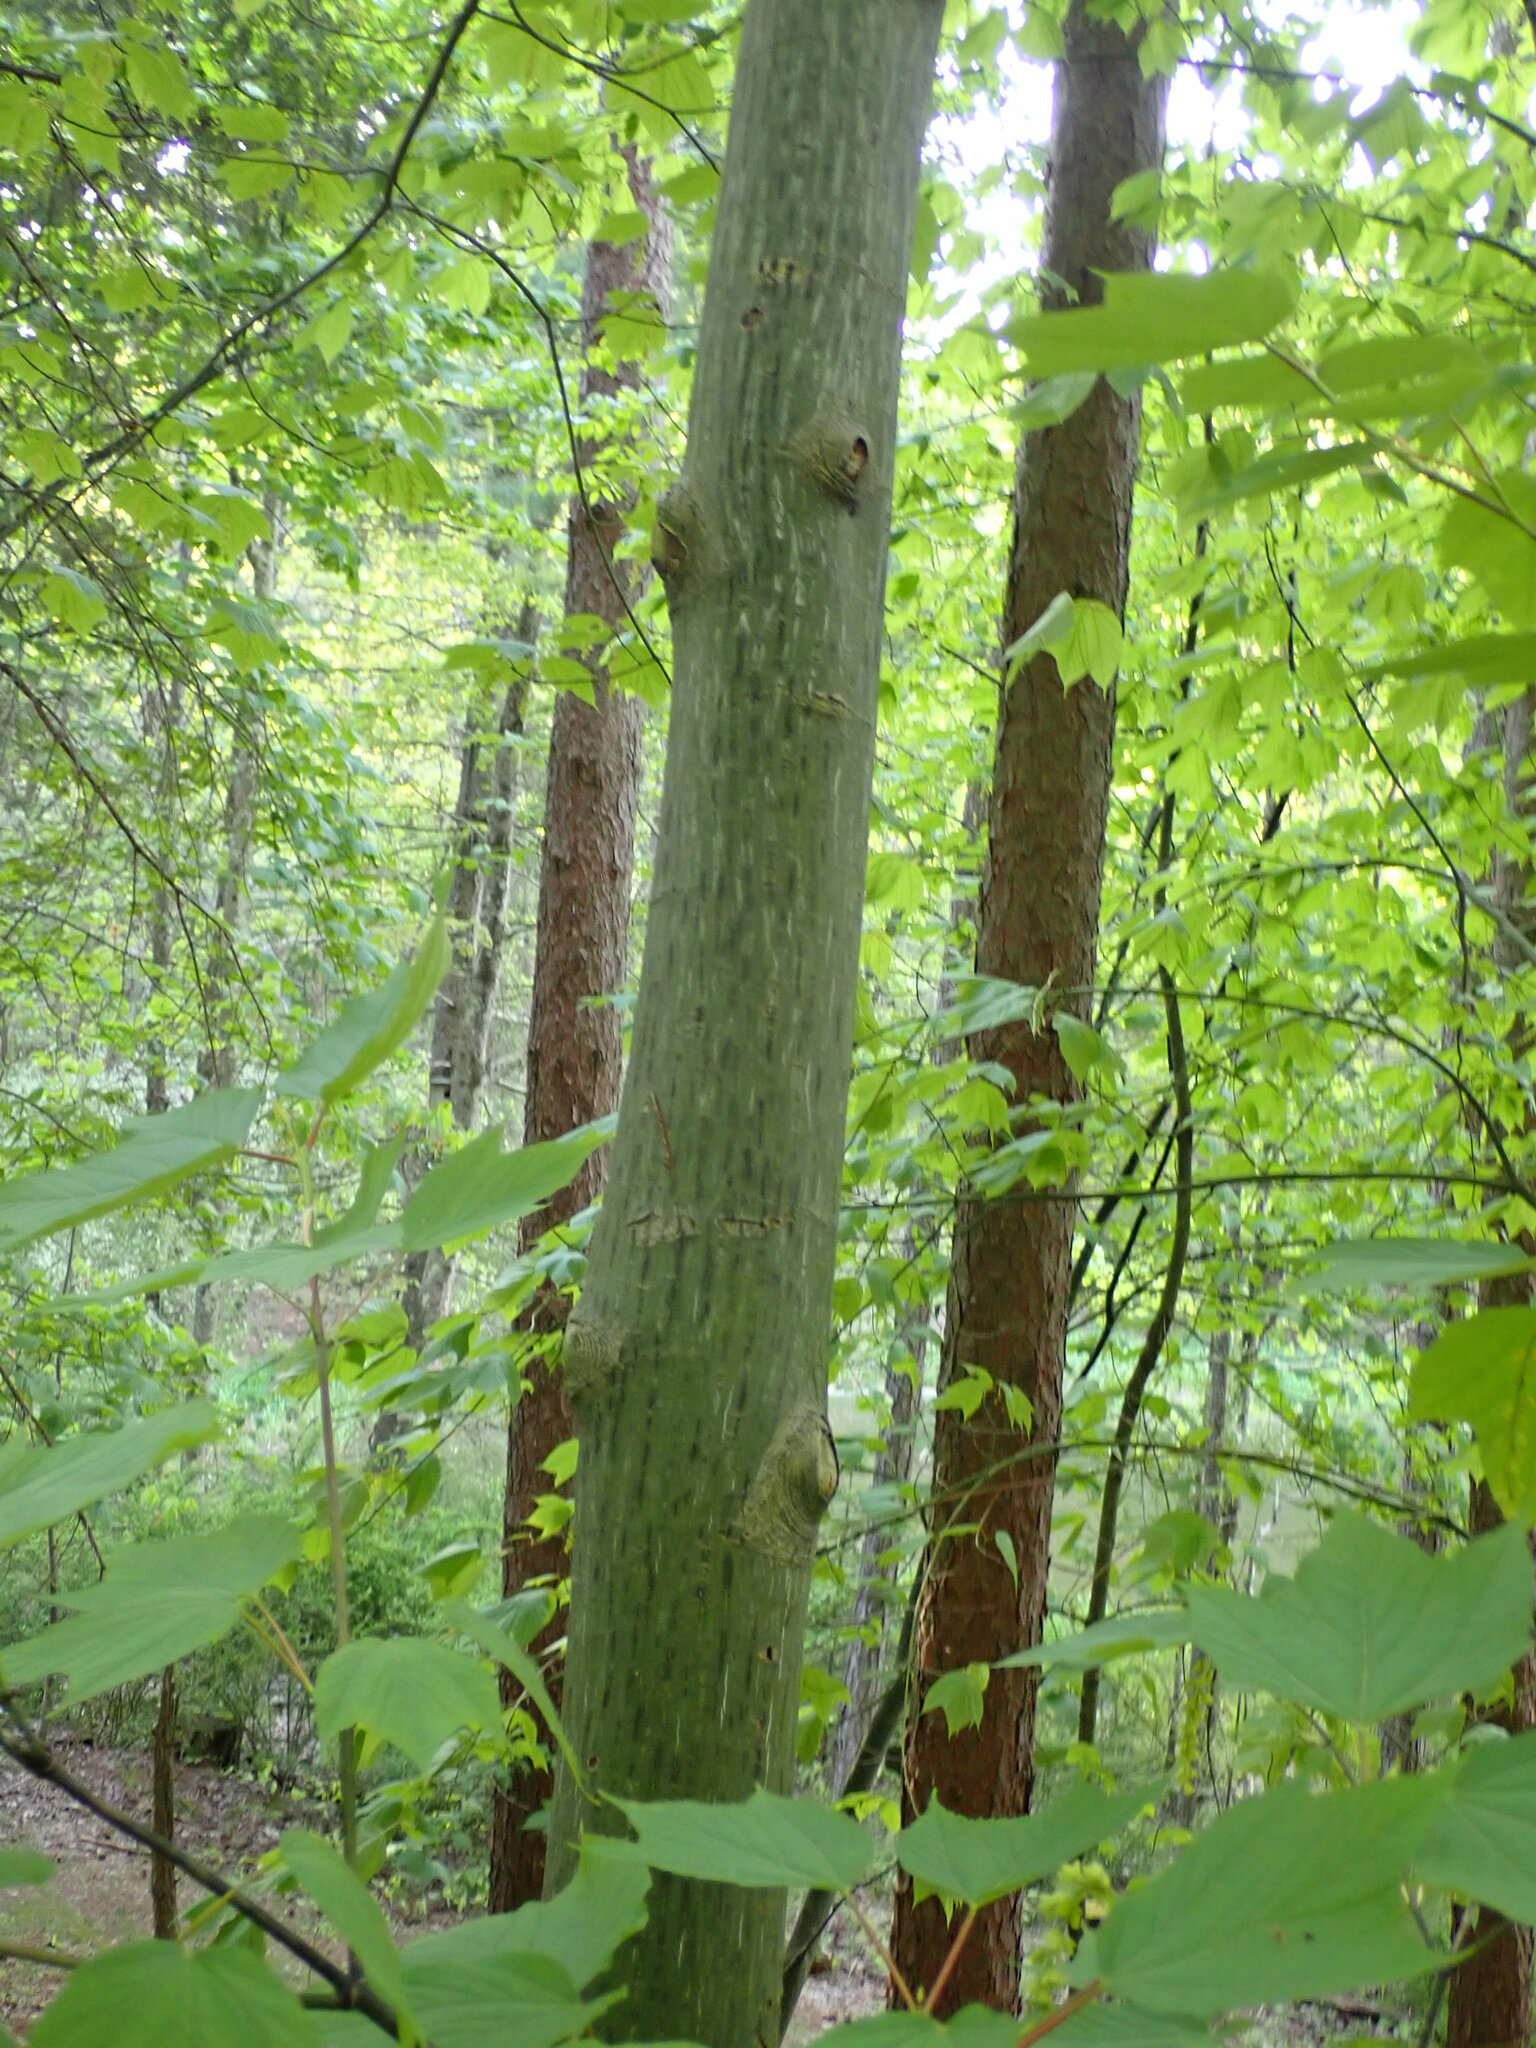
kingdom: Plantae
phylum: Tracheophyta
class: Magnoliopsida
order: Sapindales
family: Sapindaceae
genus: Acer
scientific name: Acer pensylvanicum
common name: Moosewood
